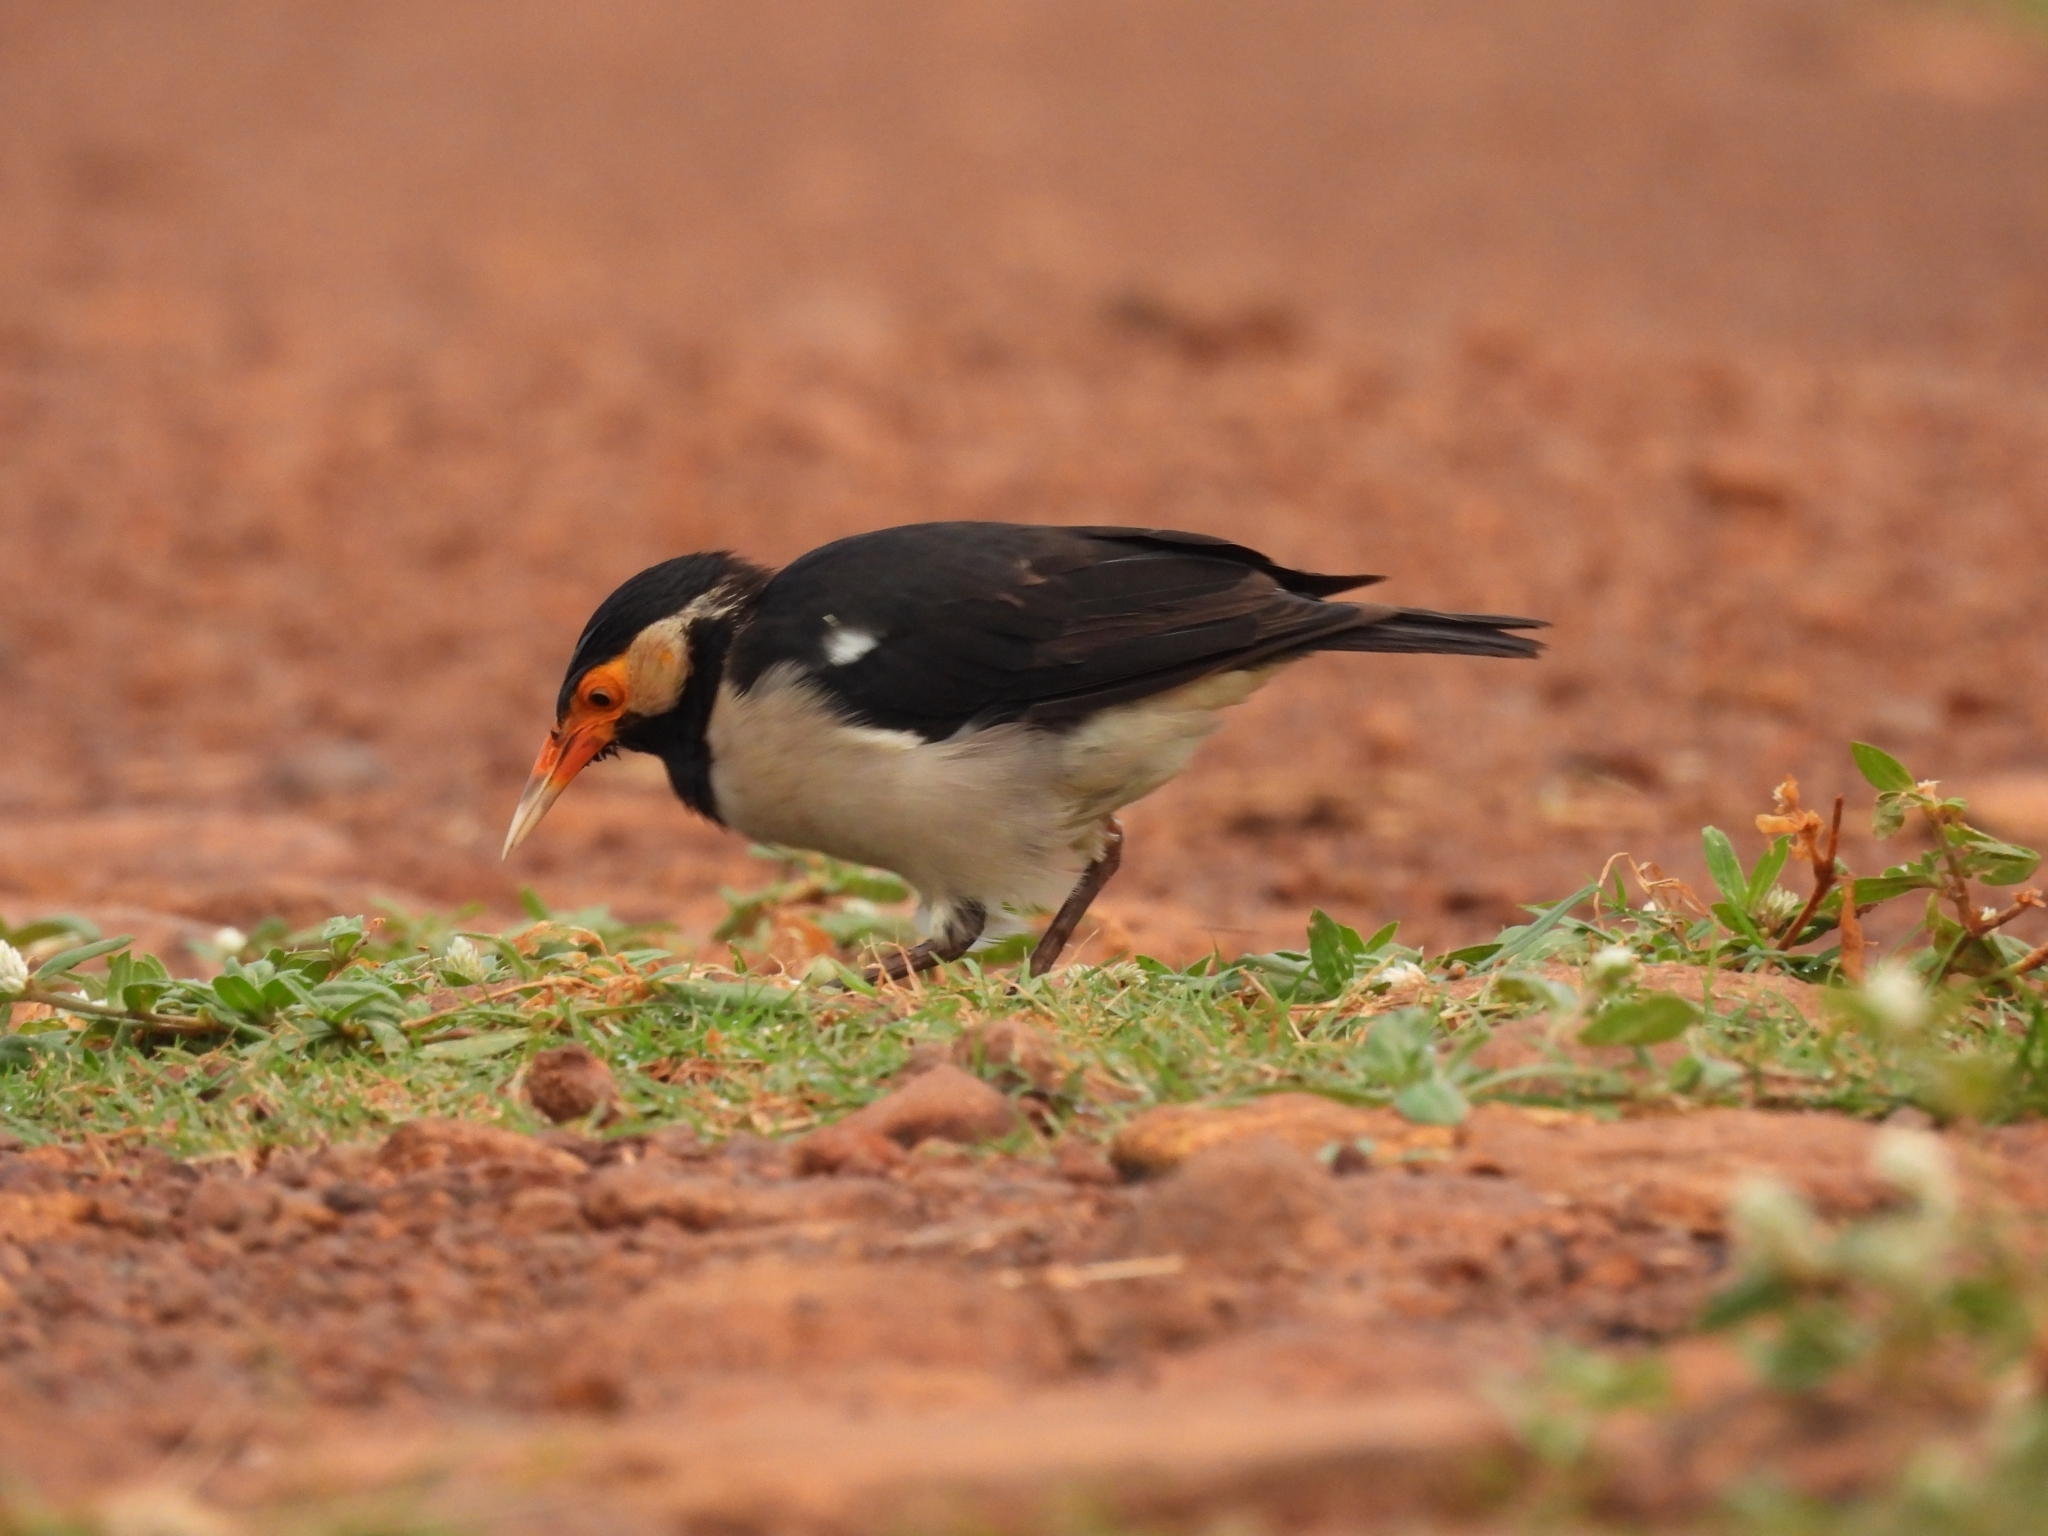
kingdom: Animalia
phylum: Chordata
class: Aves
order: Passeriformes
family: Sturnidae
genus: Gracupica
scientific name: Gracupica contra
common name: Pied myna
